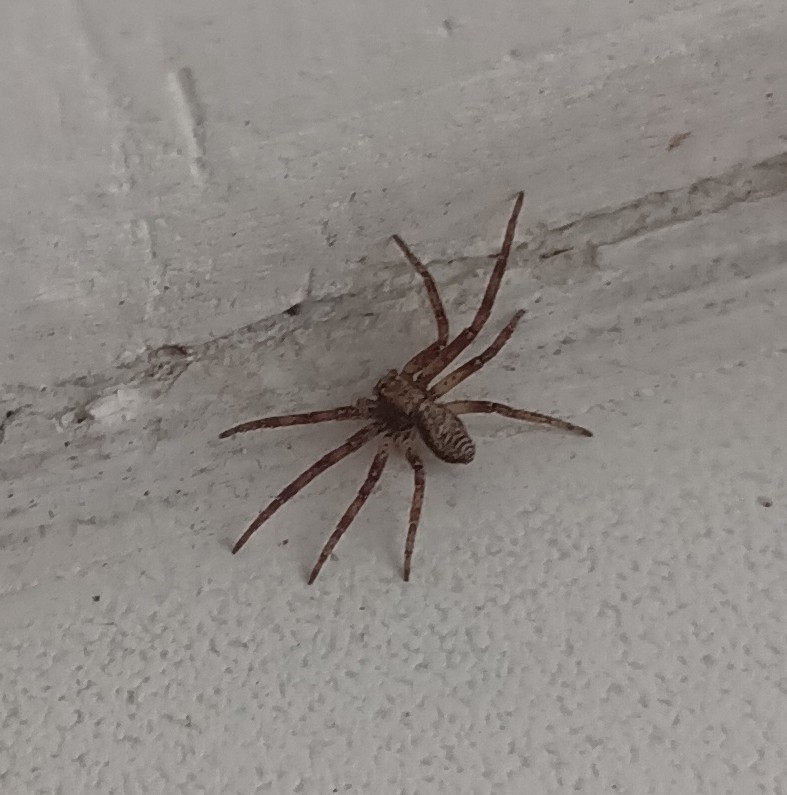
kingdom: Animalia
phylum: Arthropoda
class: Arachnida
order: Araneae
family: Philodromidae
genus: Philodromus
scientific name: Philodromus
